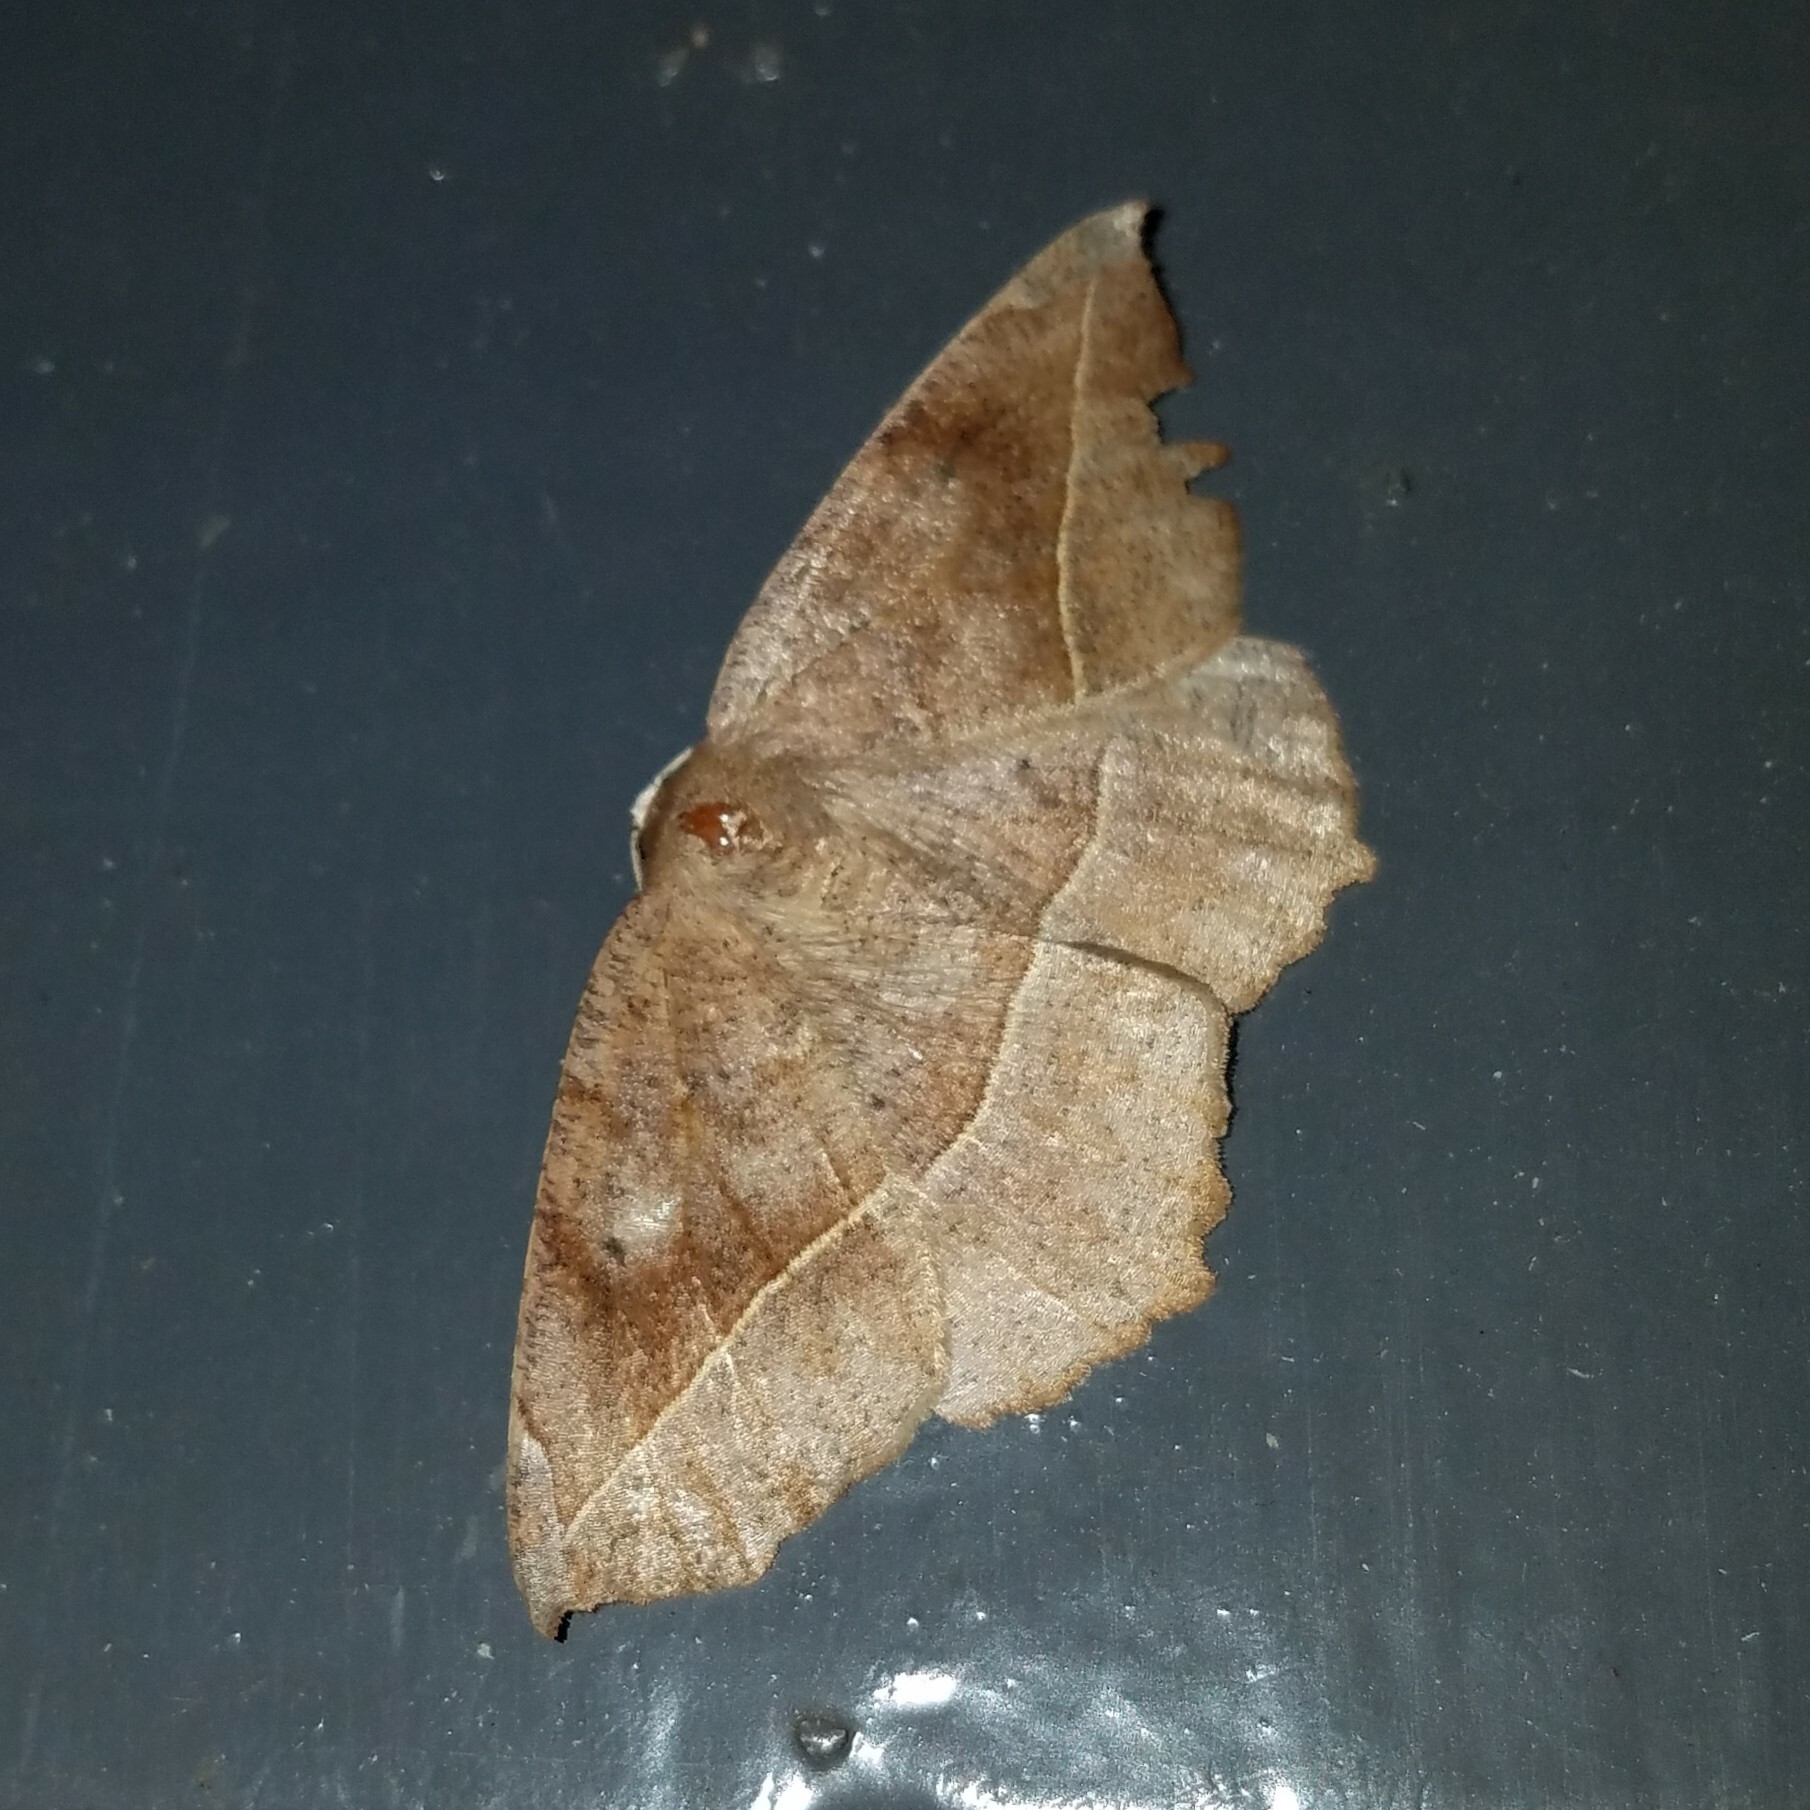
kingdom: Animalia
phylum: Arthropoda
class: Insecta
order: Lepidoptera
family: Geometridae
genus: Eutrapela
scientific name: Eutrapela clemataria
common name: Curved-toothed geometer
